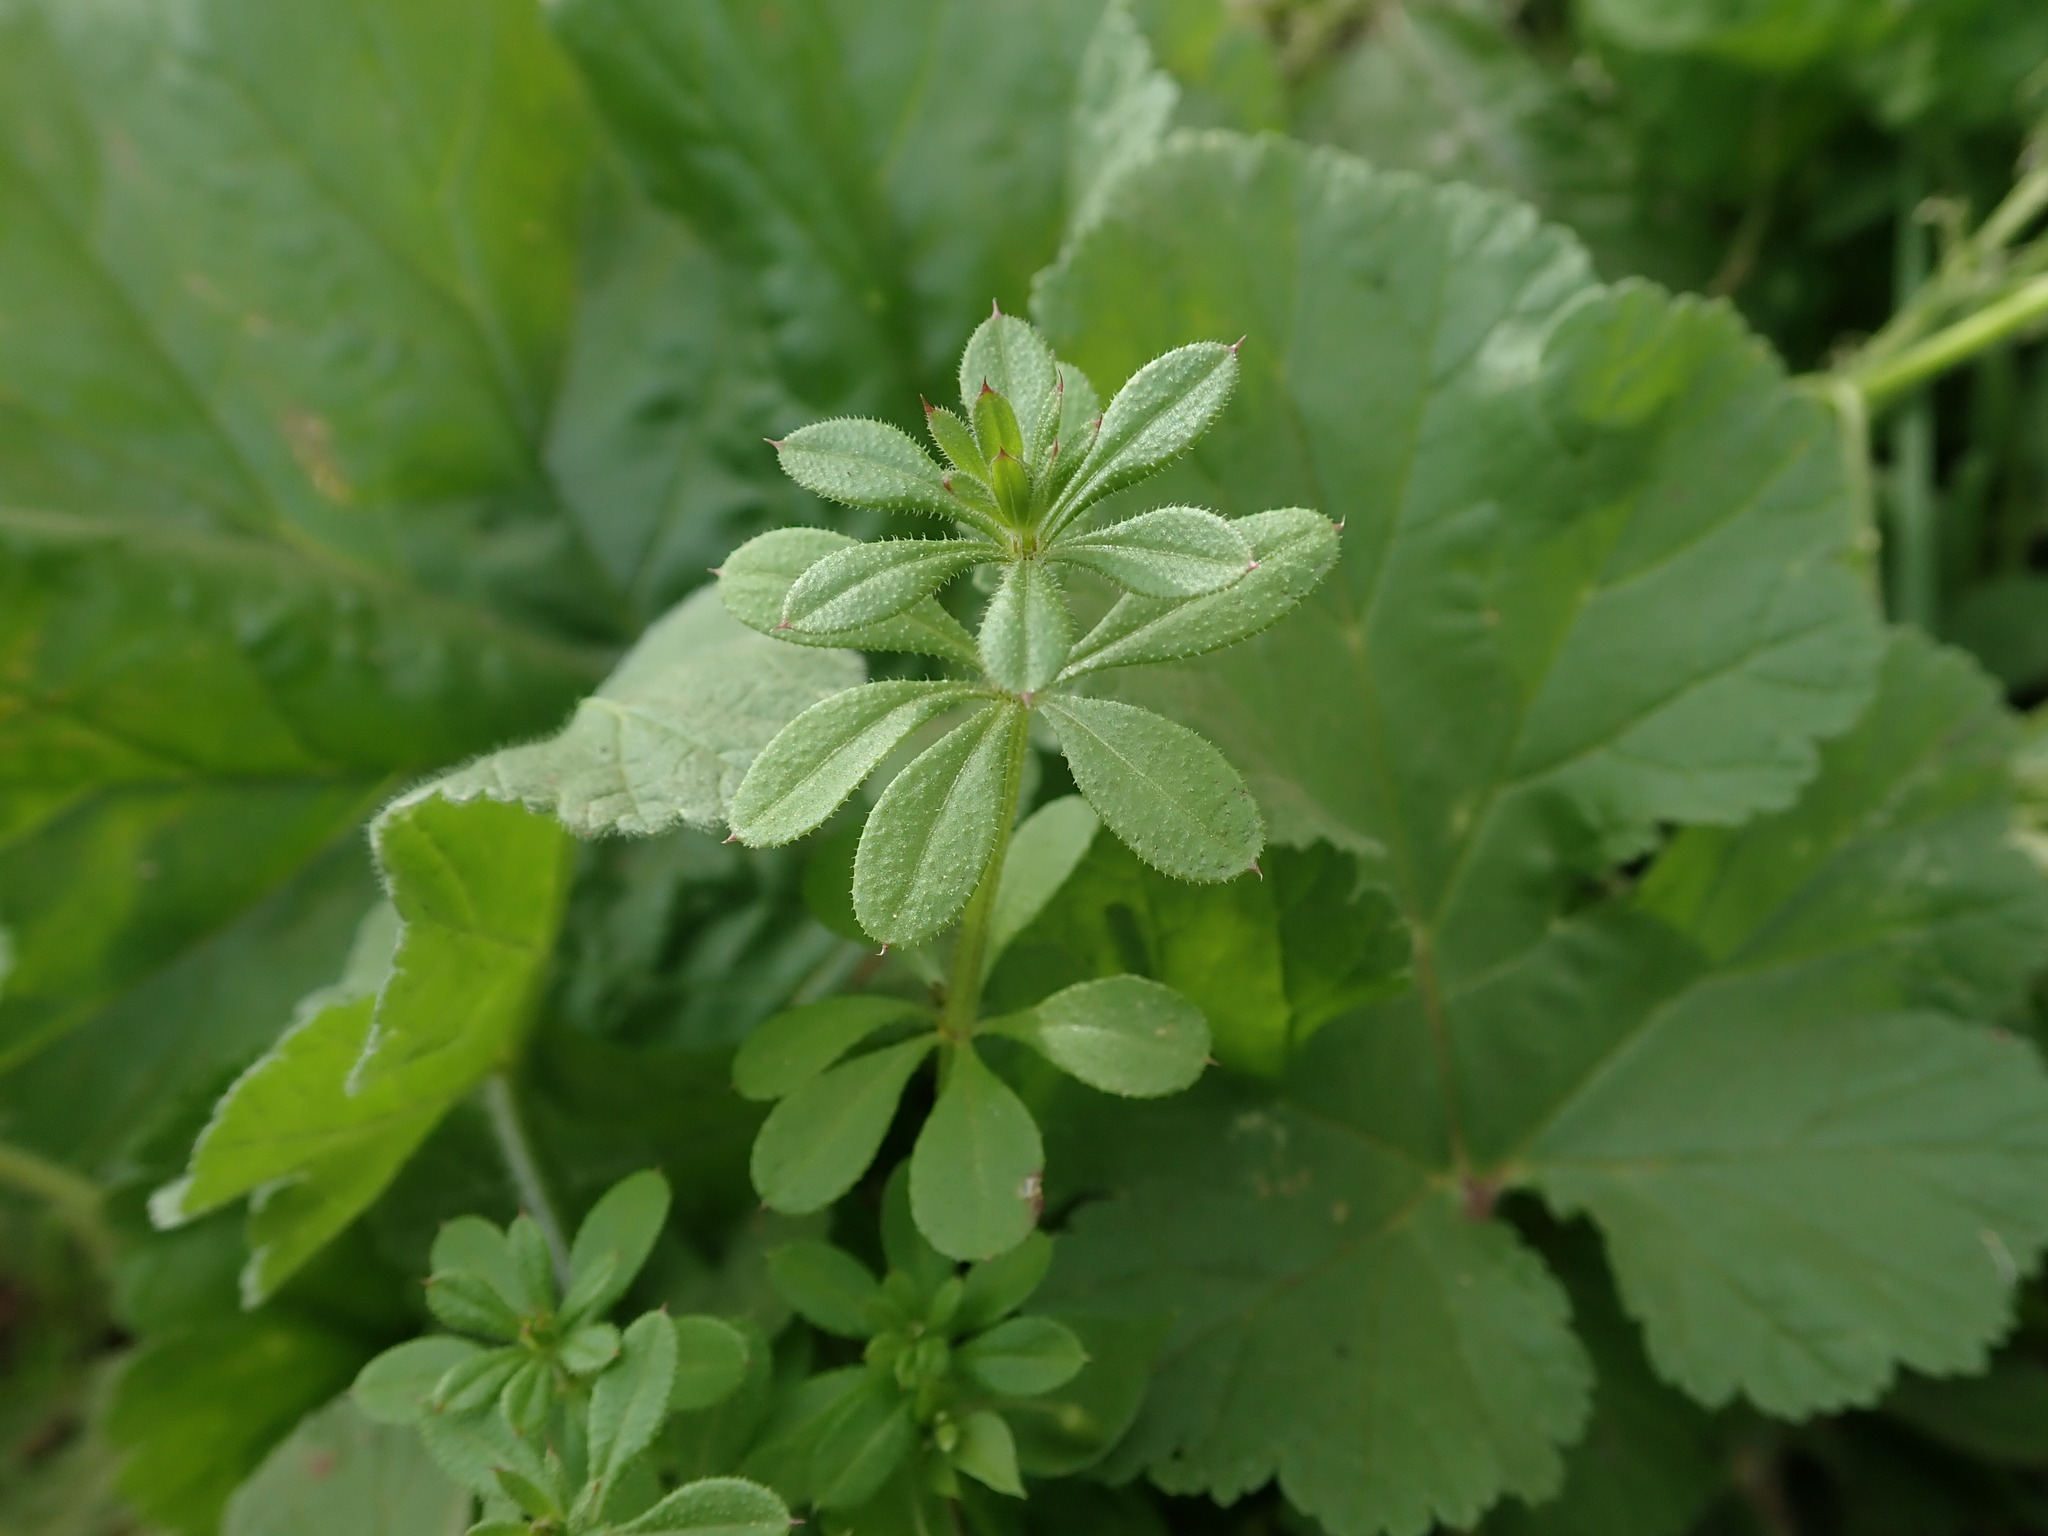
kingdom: Plantae
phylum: Tracheophyta
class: Magnoliopsida
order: Gentianales
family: Rubiaceae
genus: Galium
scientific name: Galium aparine
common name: Cleavers
